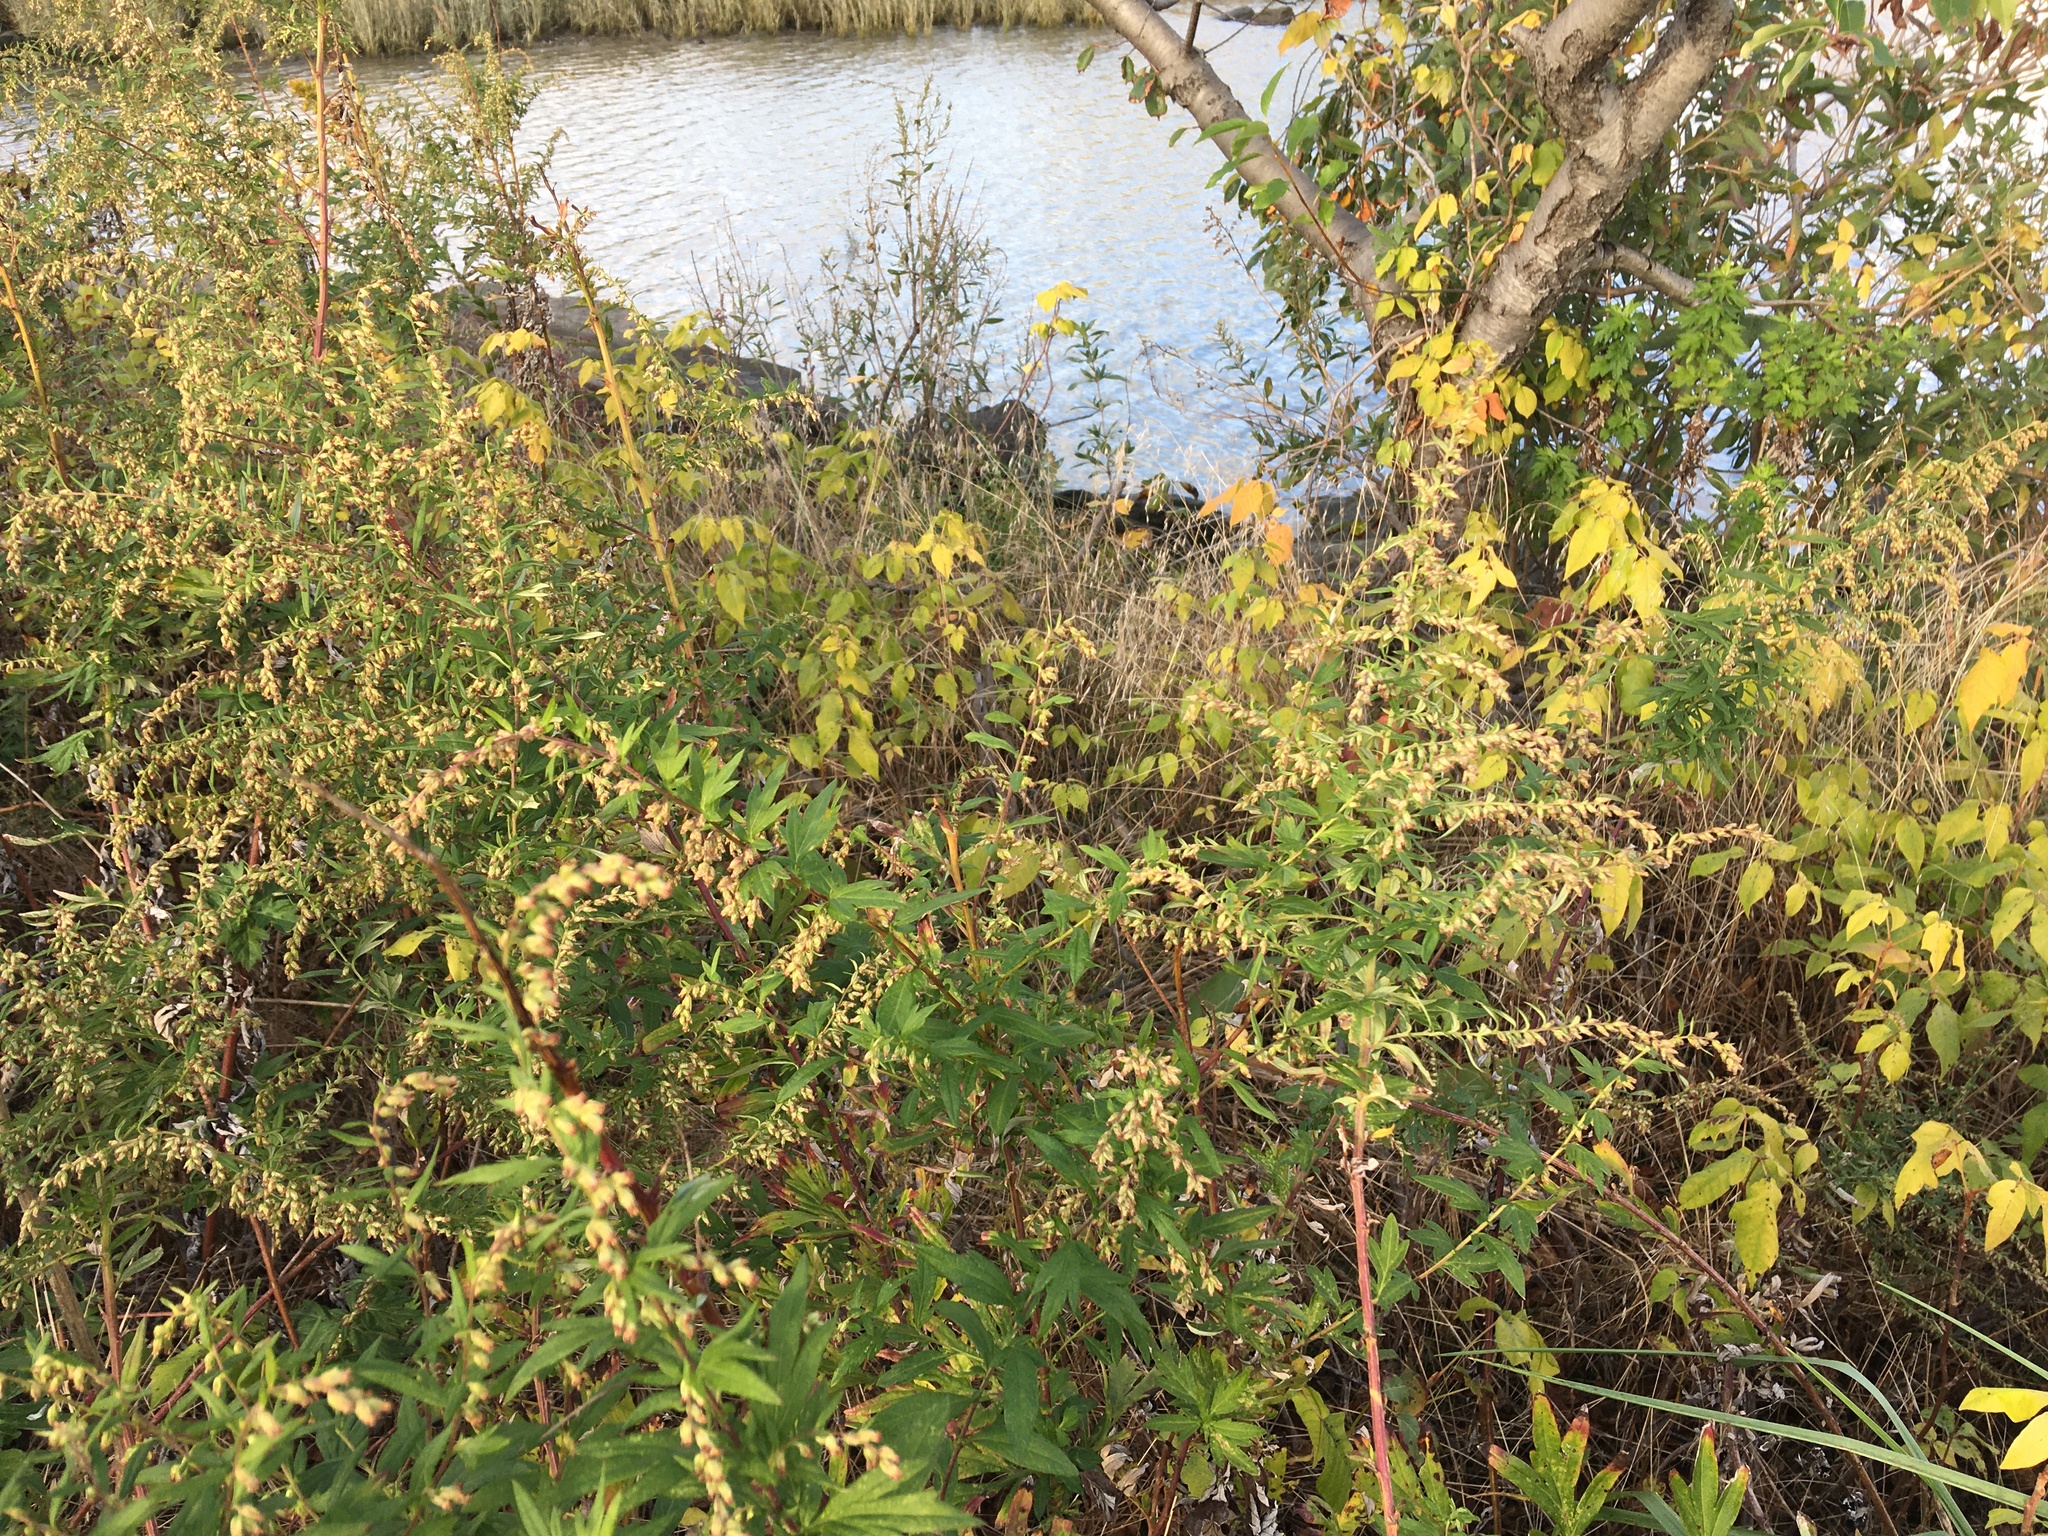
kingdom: Plantae
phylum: Tracheophyta
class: Magnoliopsida
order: Asterales
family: Asteraceae
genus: Artemisia
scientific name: Artemisia vulgaris
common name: Mugwort
